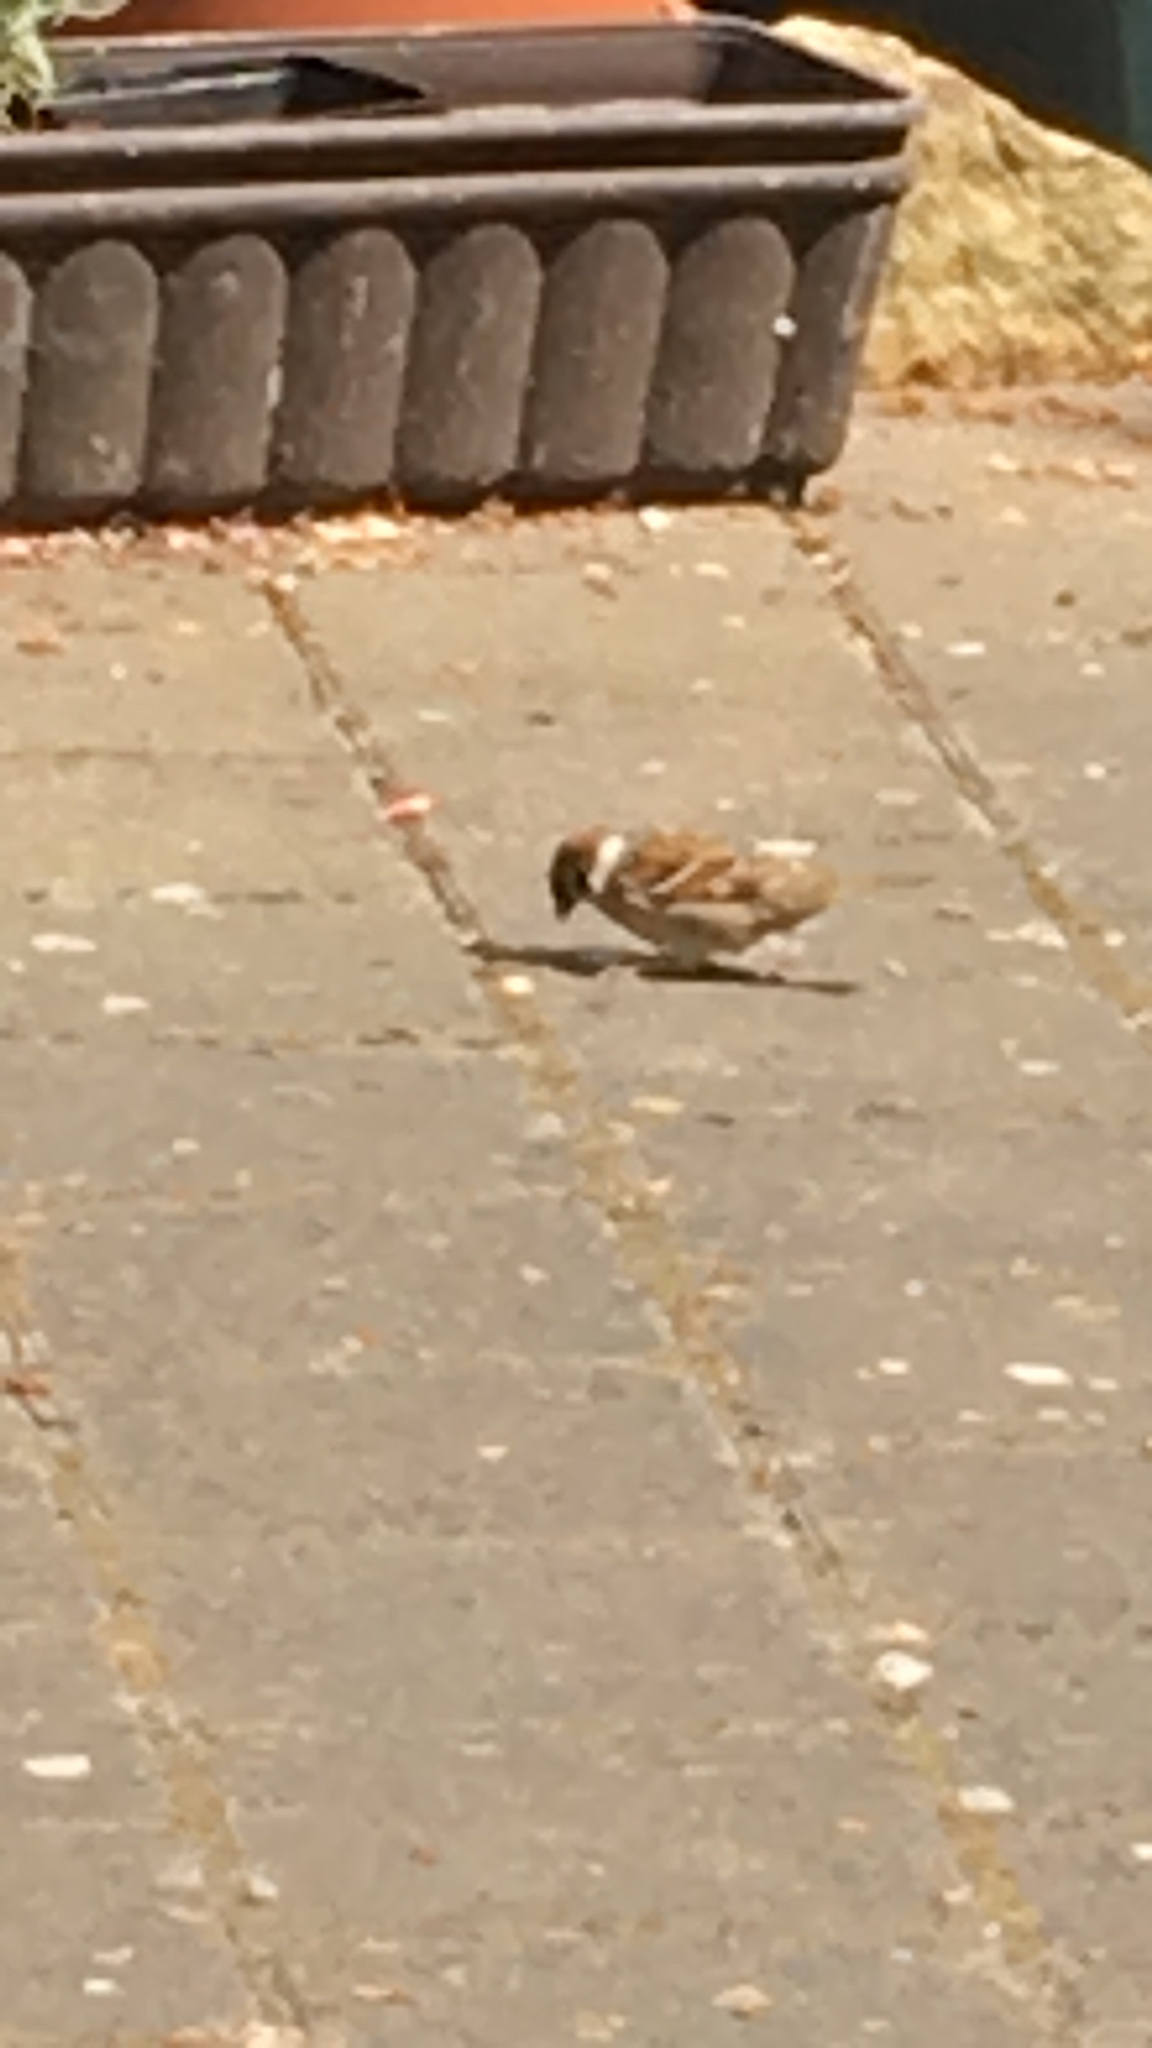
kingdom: Animalia
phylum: Chordata
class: Aves
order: Passeriformes
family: Passeridae
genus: Passer
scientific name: Passer montanus
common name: Eurasian tree sparrow
